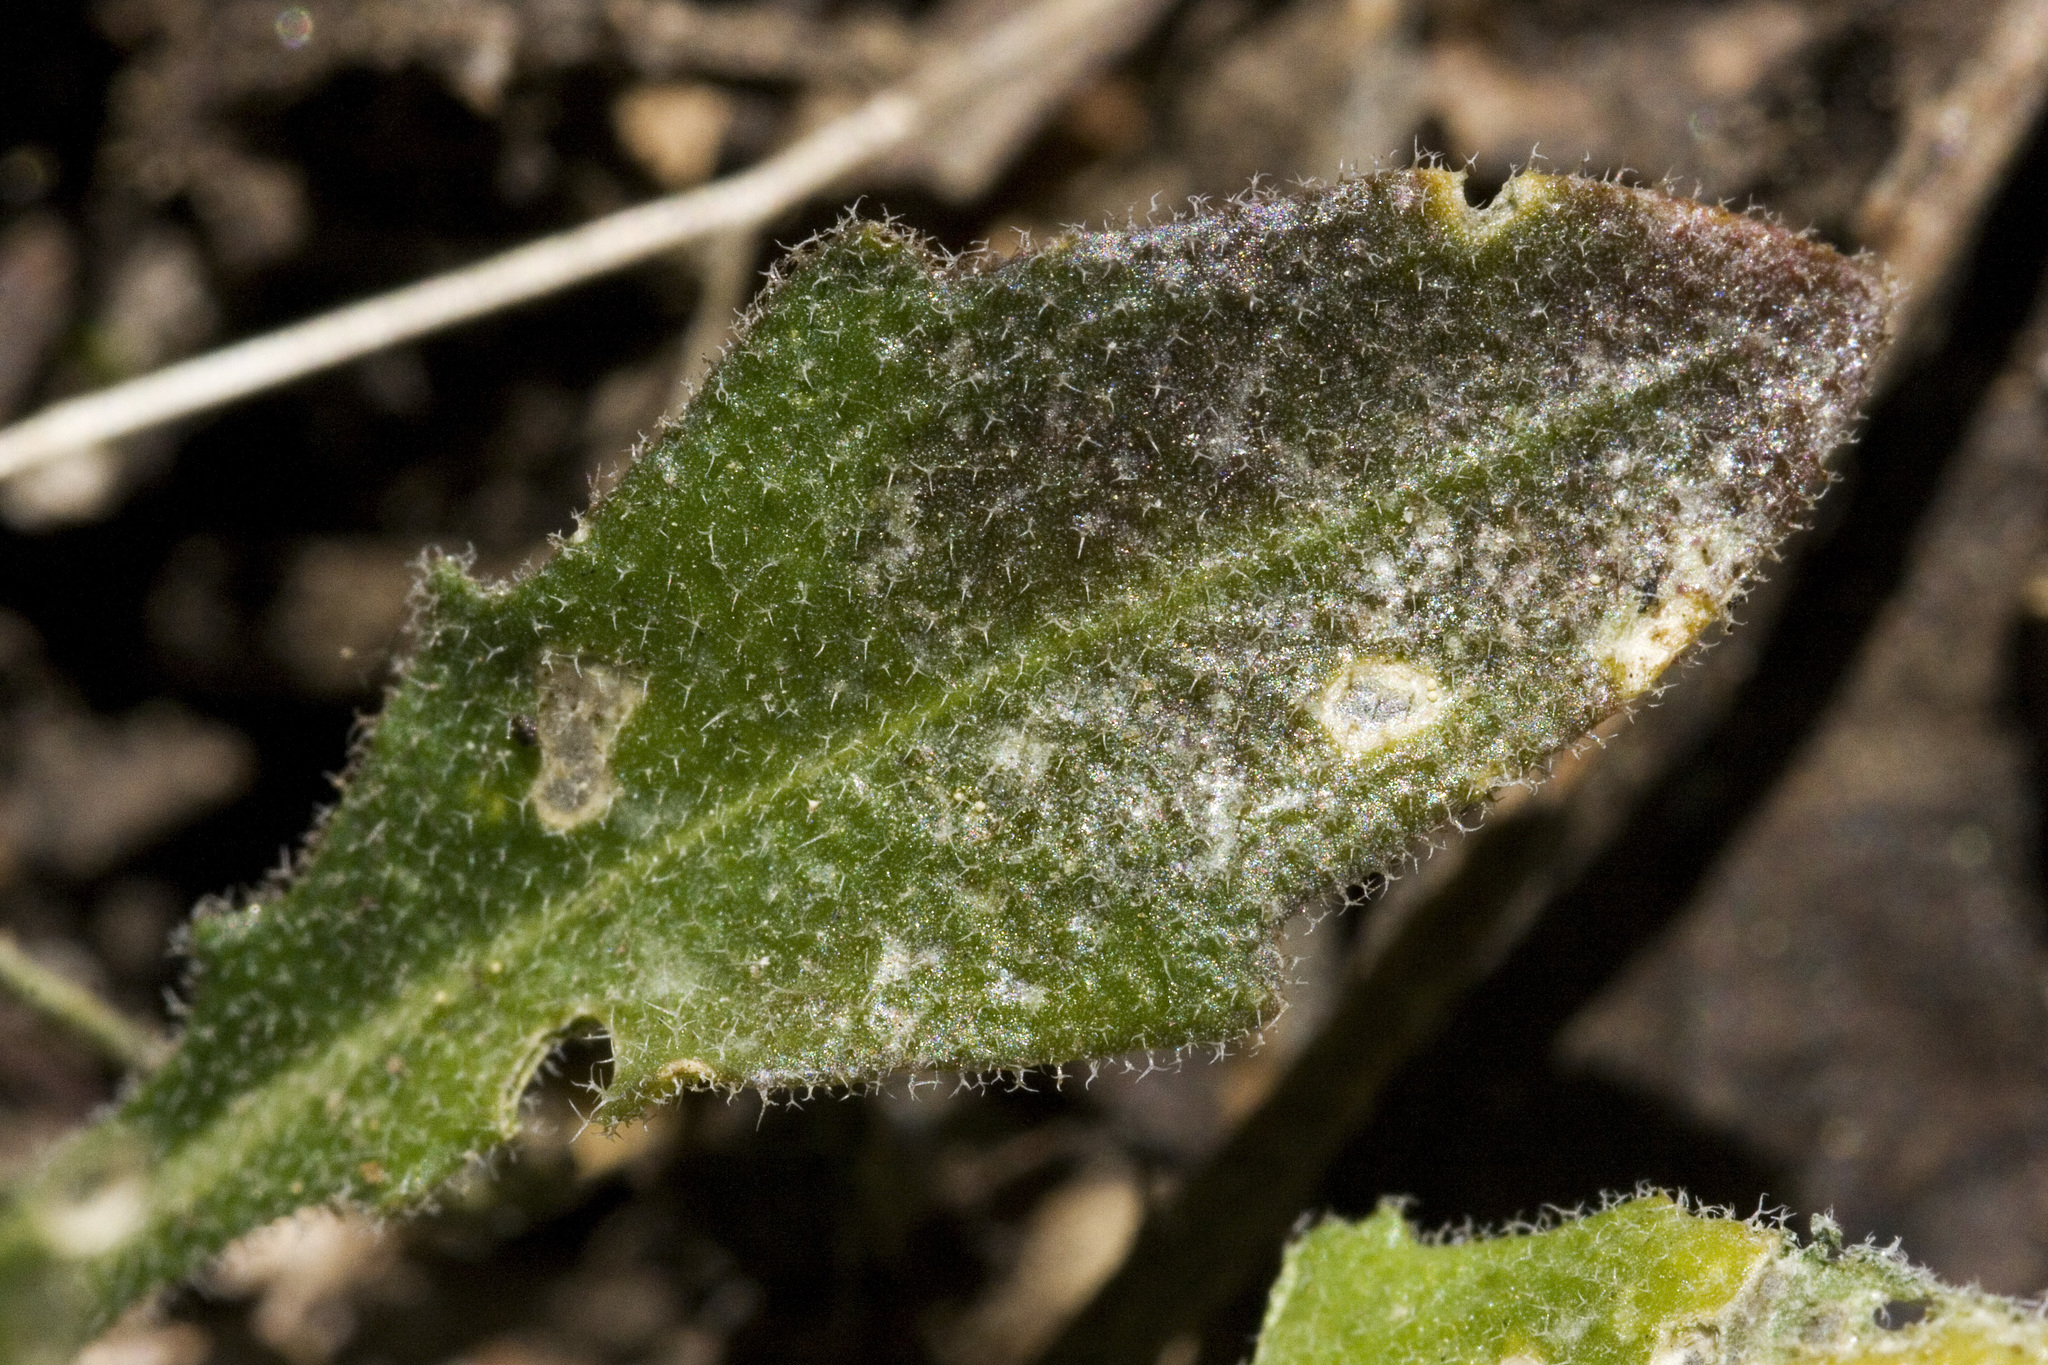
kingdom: Plantae
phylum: Tracheophyta
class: Magnoliopsida
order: Brassicales
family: Brassicaceae
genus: Boechera
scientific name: Boechera gracilipes
